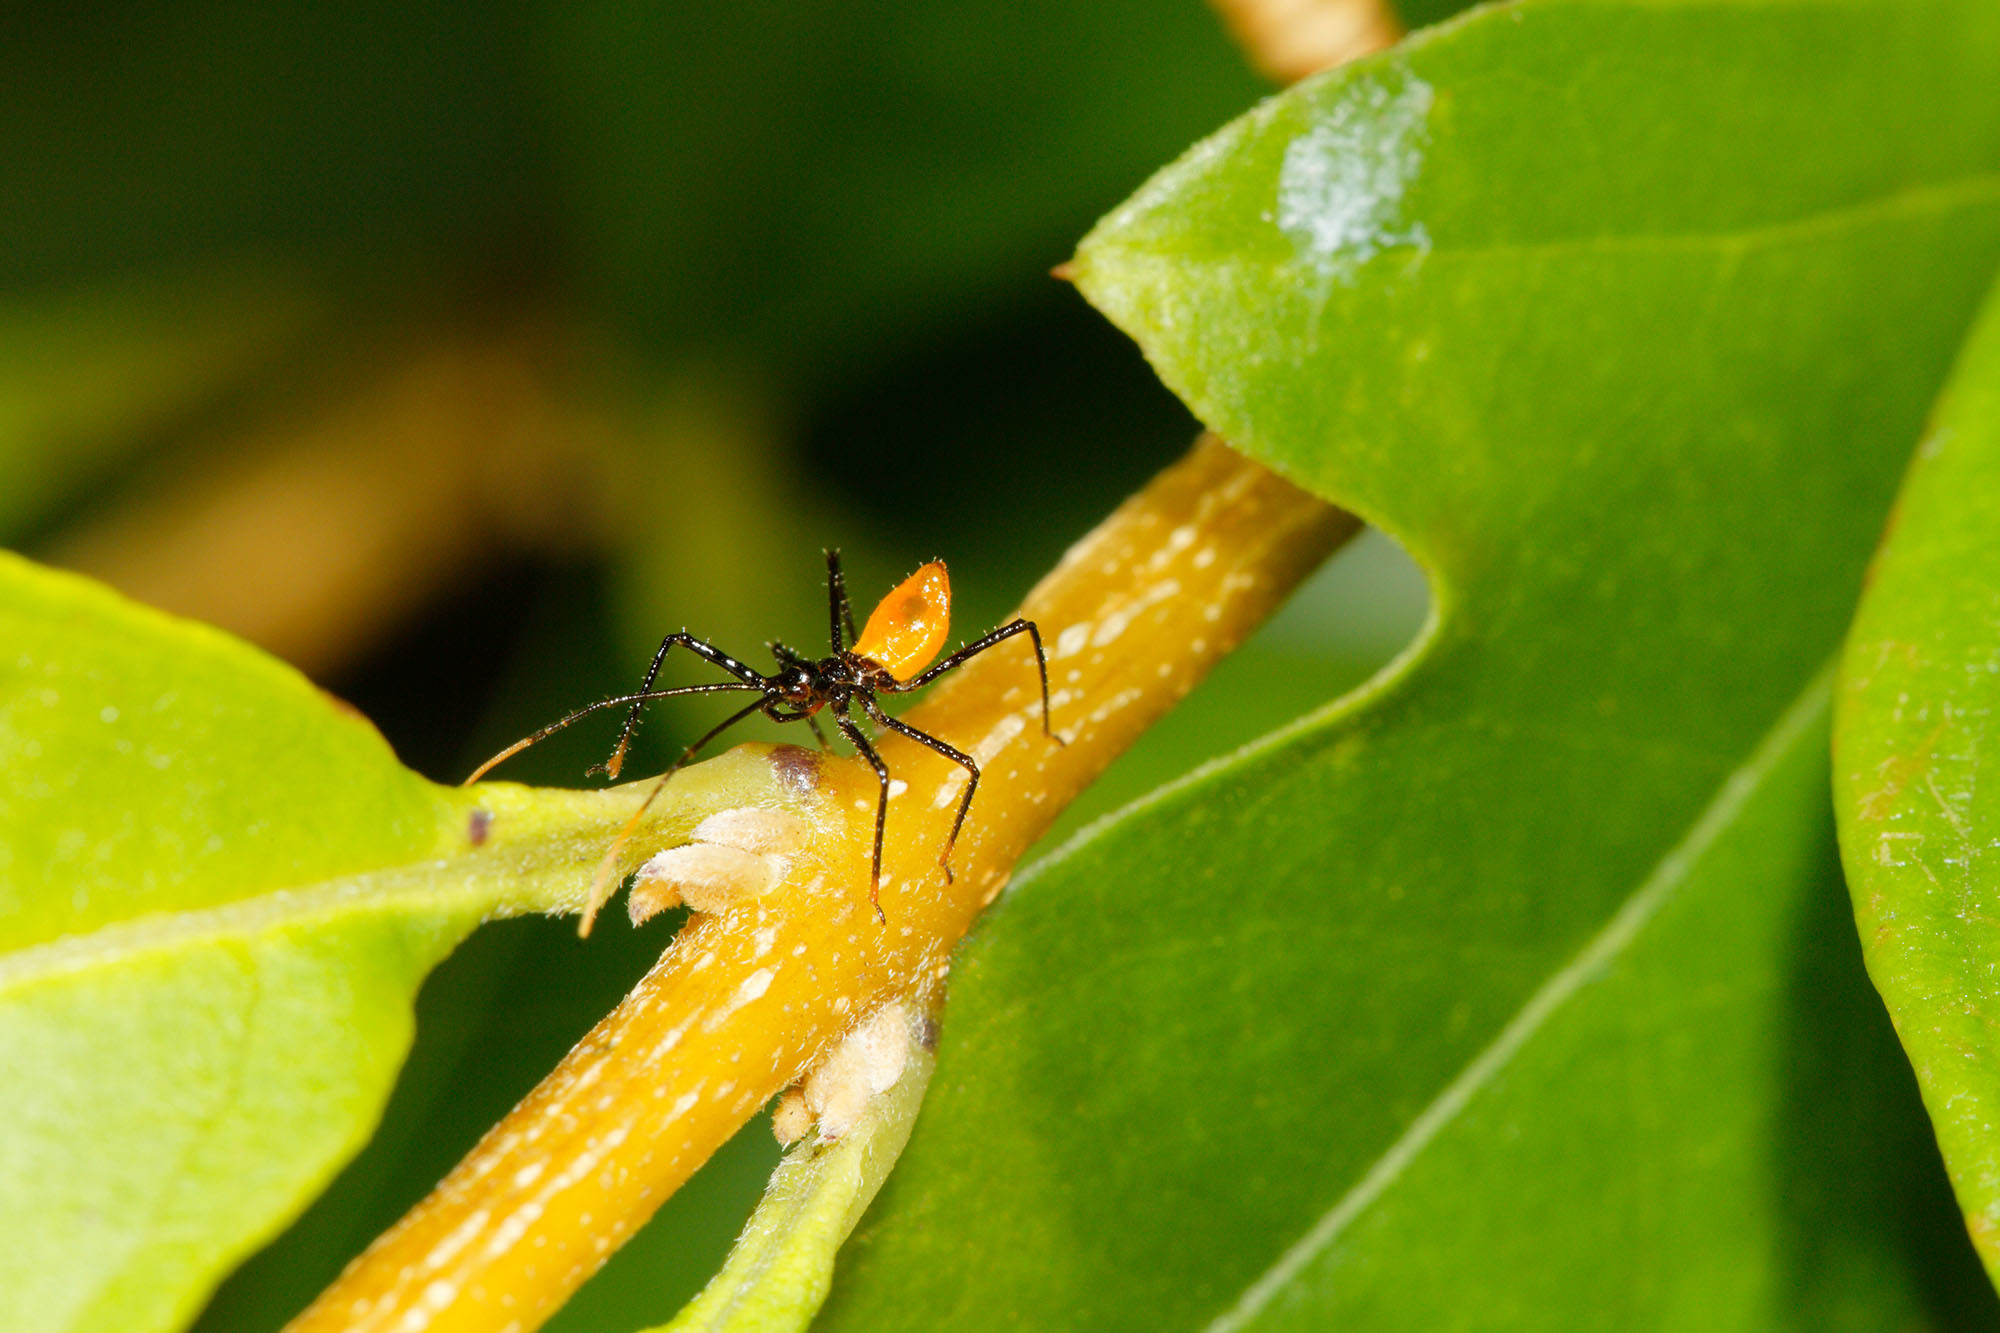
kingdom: Animalia
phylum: Arthropoda
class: Insecta
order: Hemiptera
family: Reduviidae
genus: Pristhesancus
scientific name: Pristhesancus plagipennis
